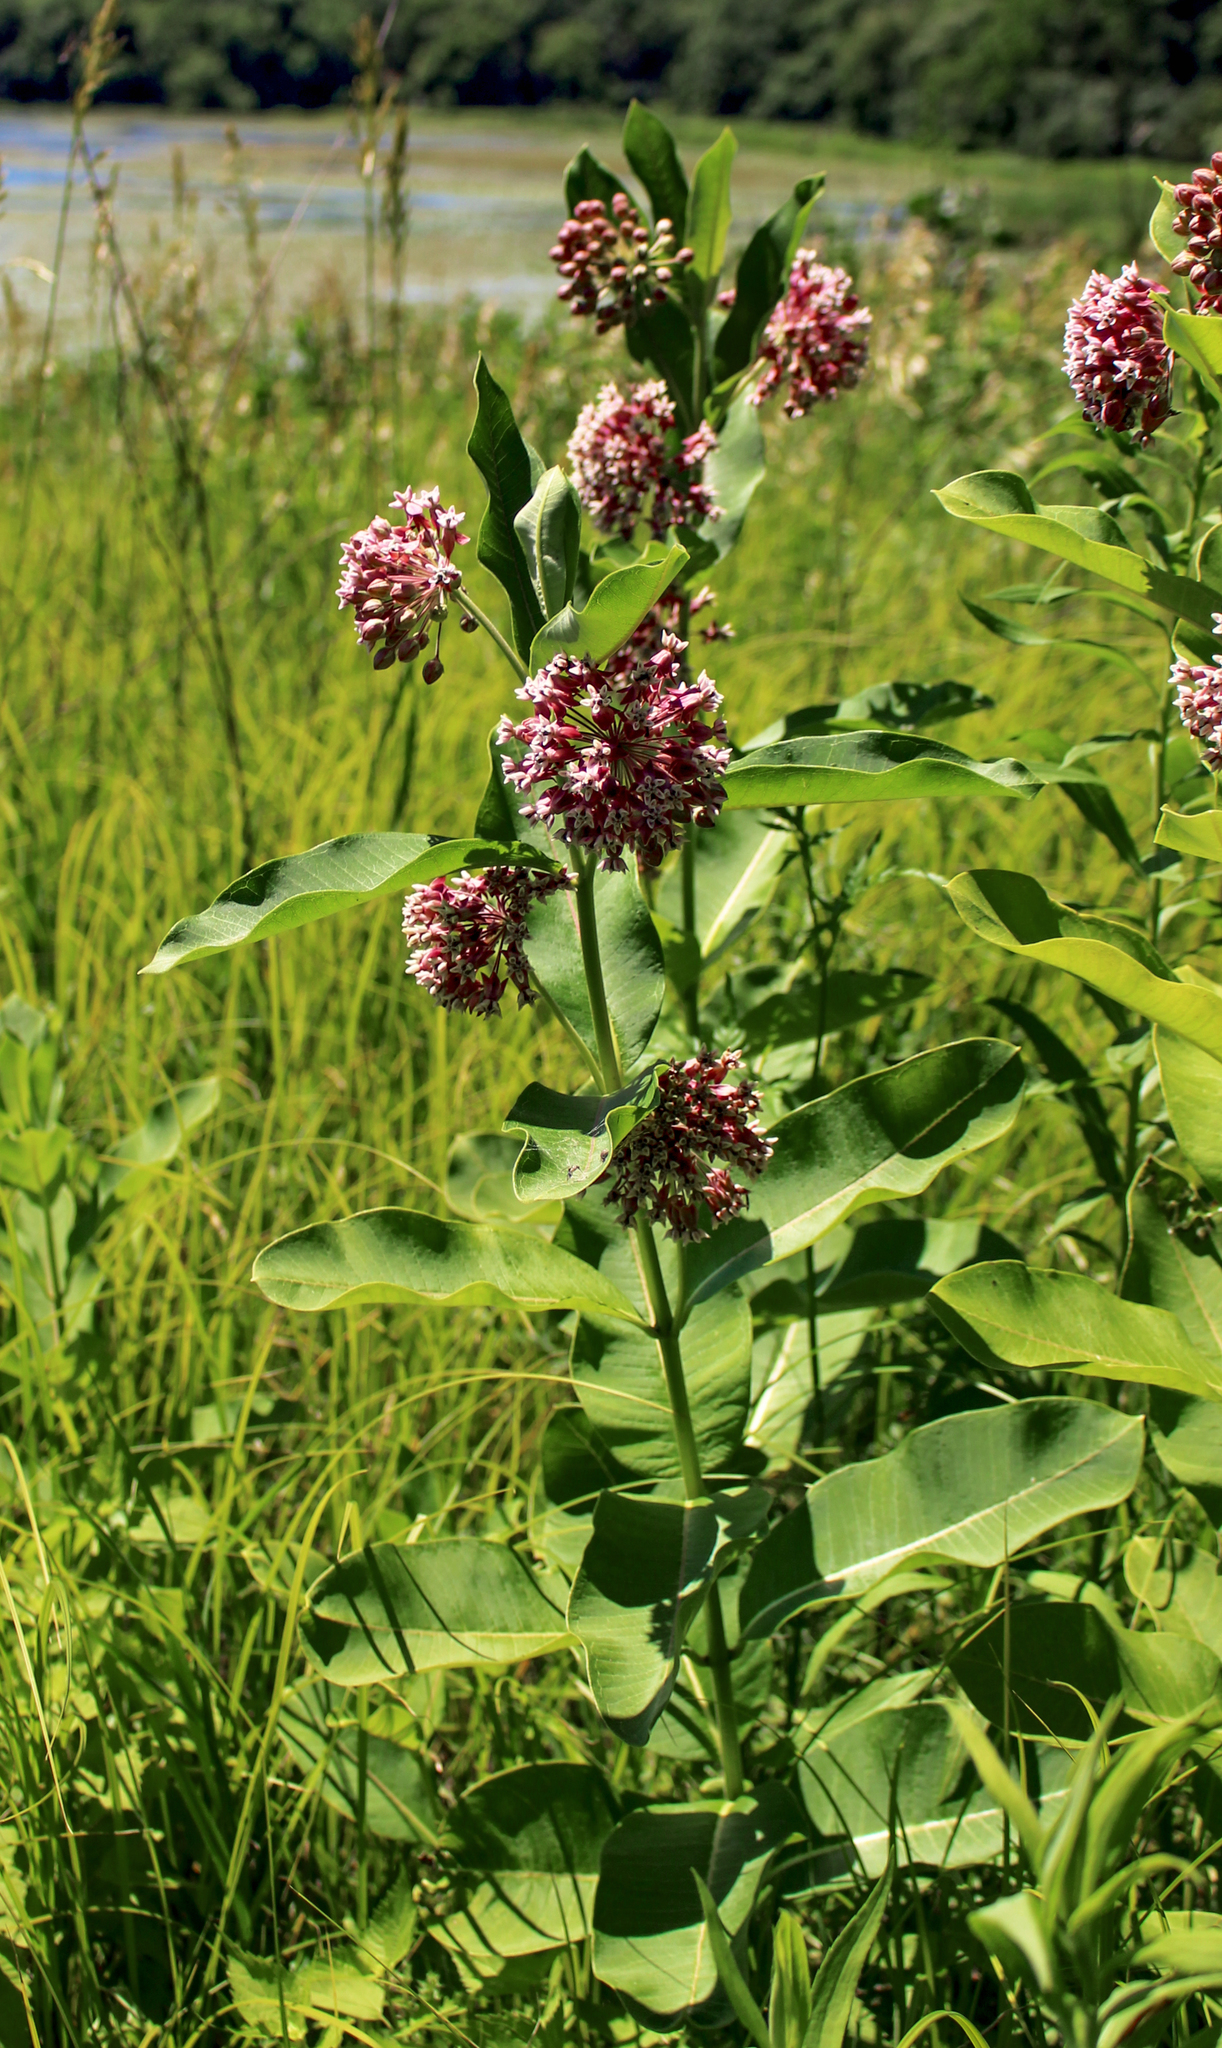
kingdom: Plantae
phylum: Tracheophyta
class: Magnoliopsida
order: Gentianales
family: Apocynaceae
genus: Asclepias
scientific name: Asclepias syriaca
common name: Common milkweed
